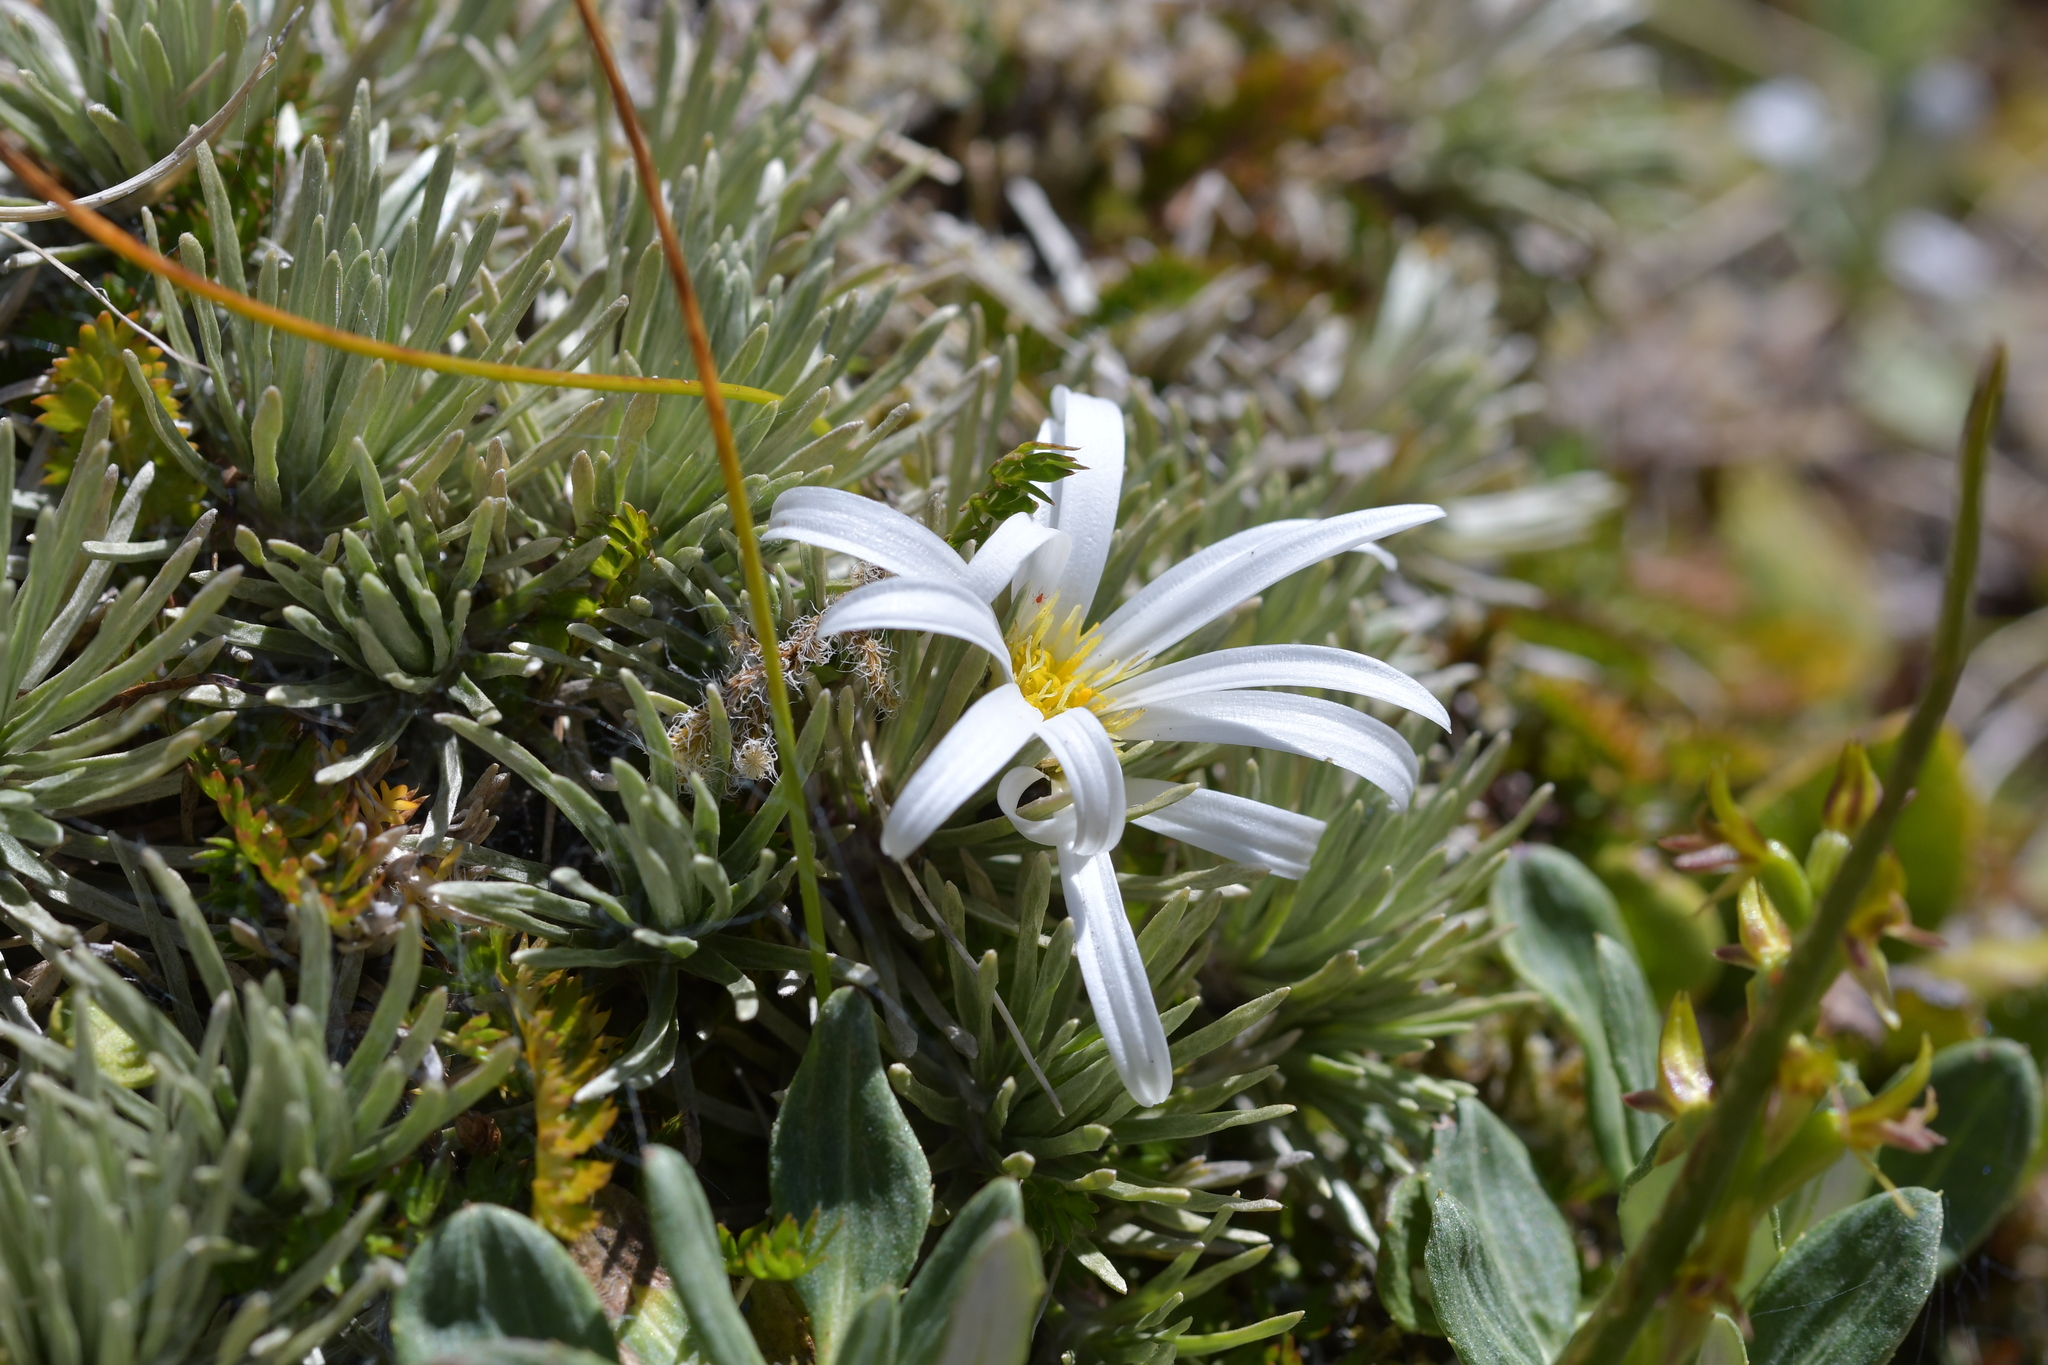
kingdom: Plantae
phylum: Tracheophyta
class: Magnoliopsida
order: Asterales
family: Asteraceae
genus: Celmisia
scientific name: Celmisia sessiliflora
